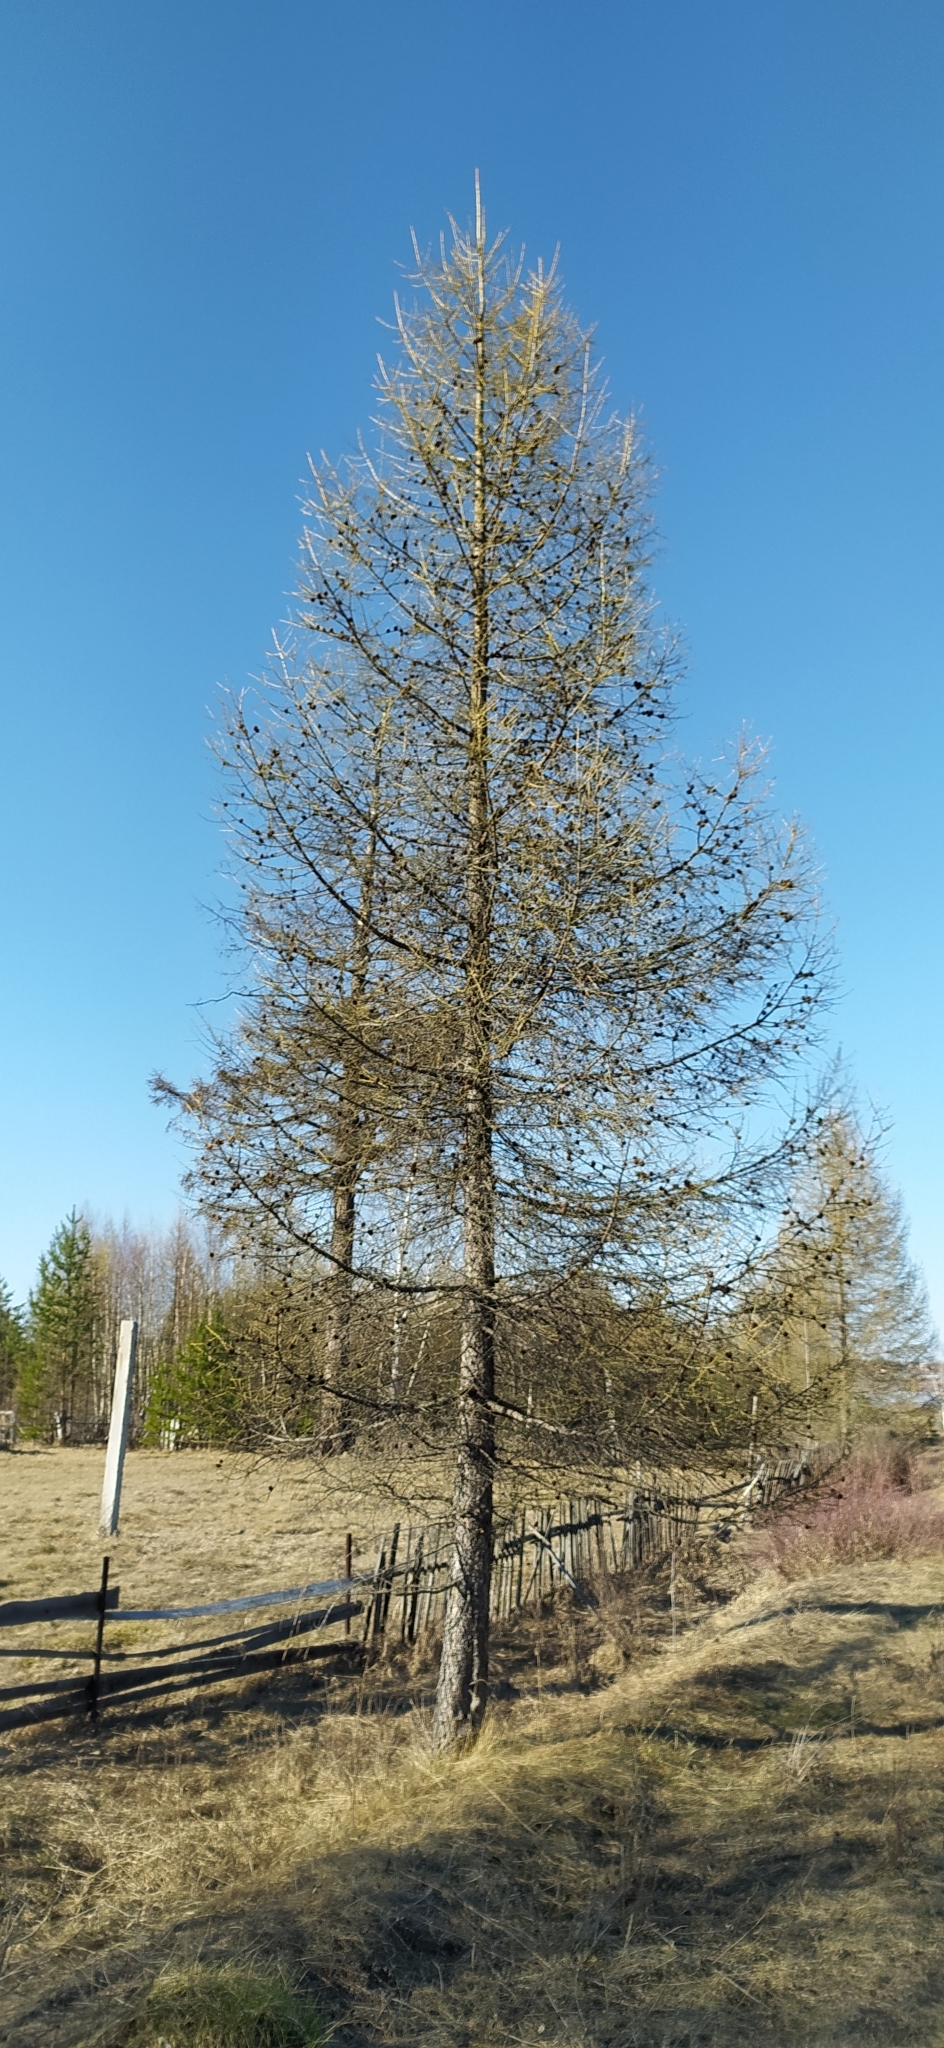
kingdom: Plantae
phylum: Tracheophyta
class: Pinopsida
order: Pinales
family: Pinaceae
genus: Larix
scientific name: Larix sibirica
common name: Siberian larch
